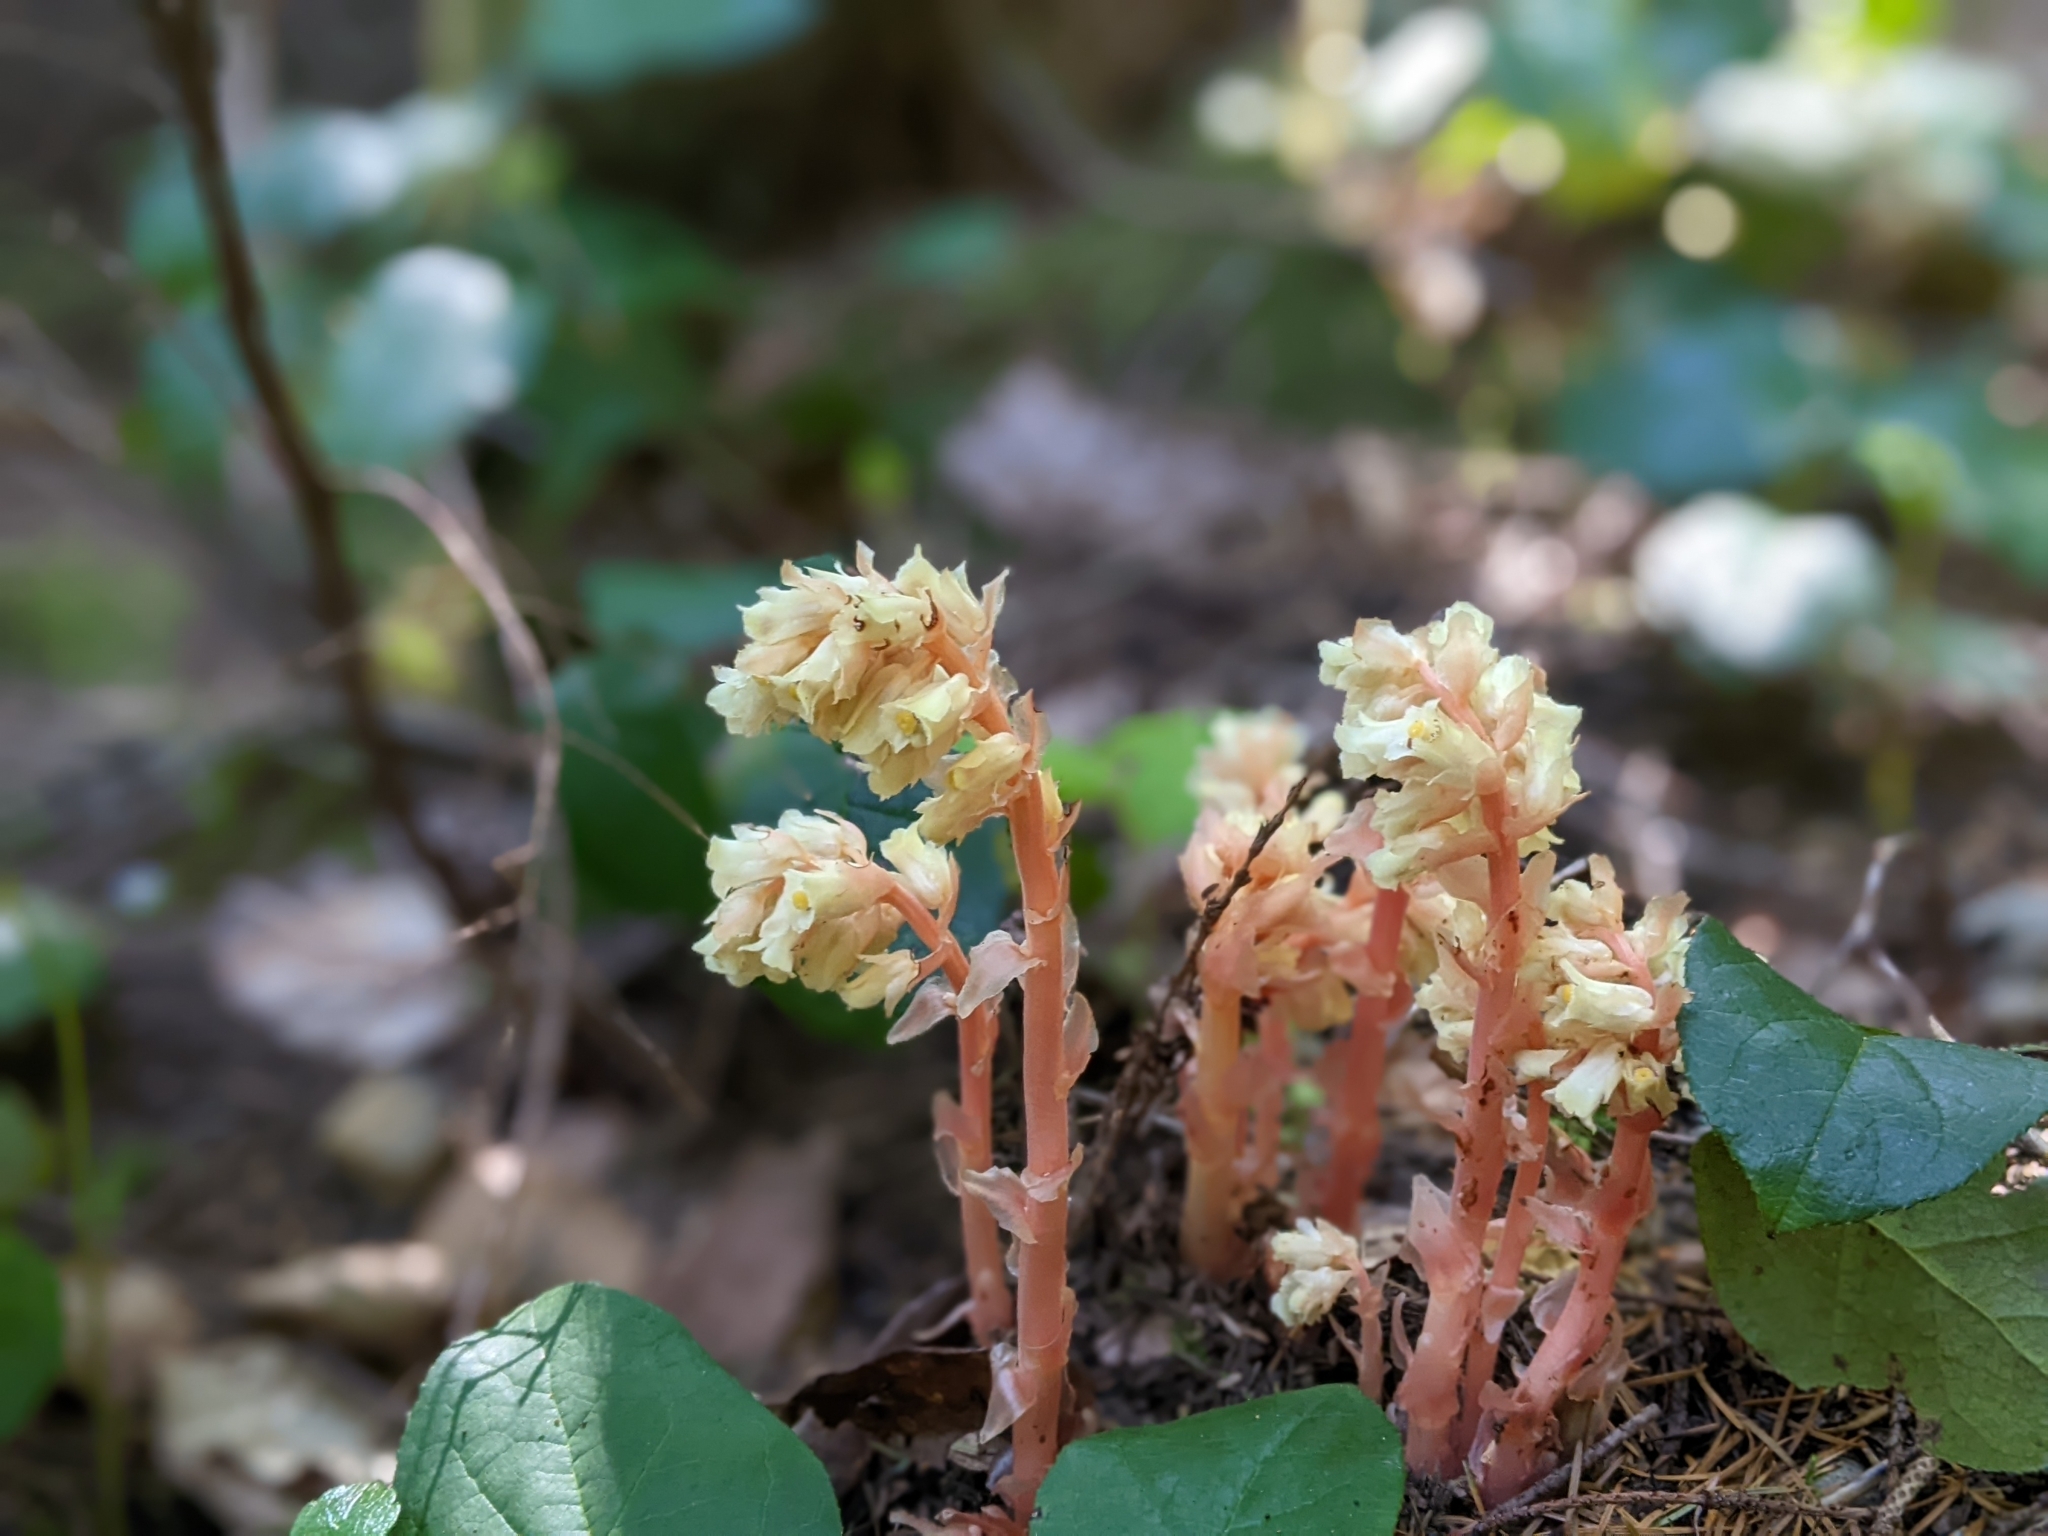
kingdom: Plantae
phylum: Tracheophyta
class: Magnoliopsida
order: Ericales
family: Ericaceae
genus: Hypopitys
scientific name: Hypopitys monotropa
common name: Yellow bird's-nest
